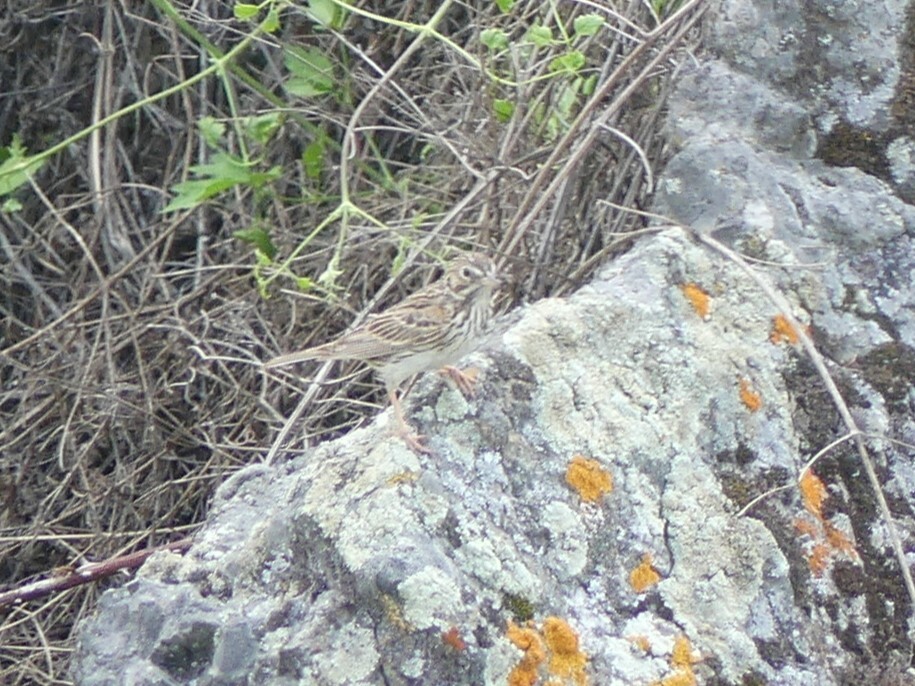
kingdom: Animalia
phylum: Chordata
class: Aves
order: Passeriformes
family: Passerellidae
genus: Pooecetes
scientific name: Pooecetes gramineus
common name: Vesper sparrow
